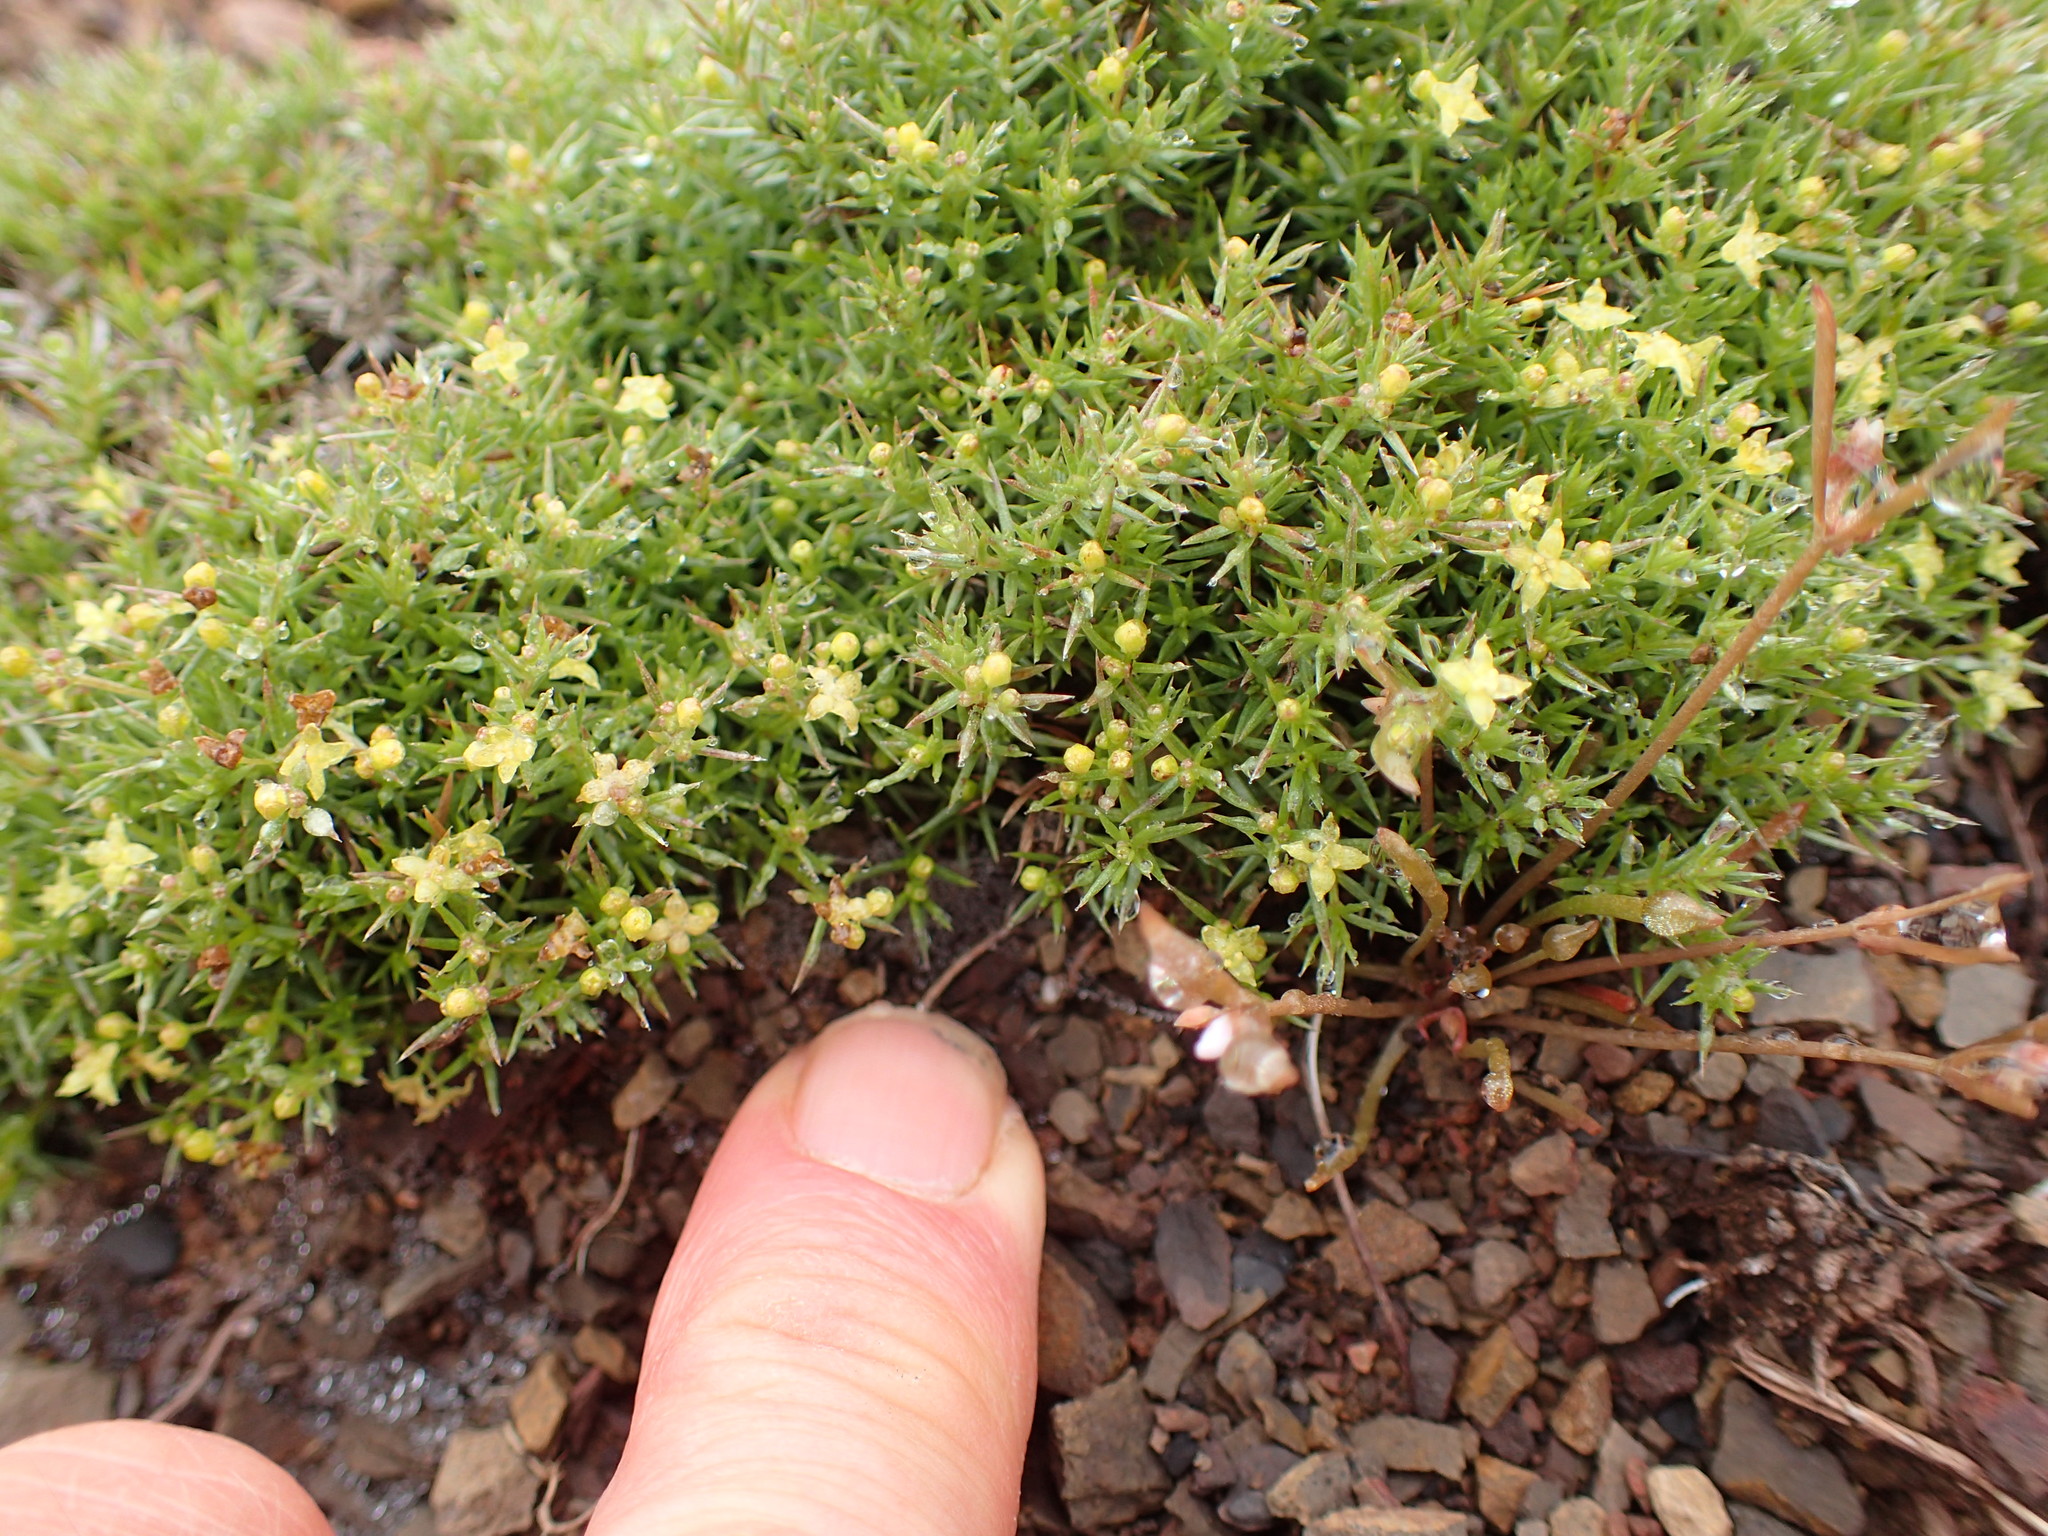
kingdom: Plantae
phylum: Tracheophyta
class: Magnoliopsida
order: Gentianales
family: Rubiaceae
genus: Galium
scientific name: Galium andrewsii
